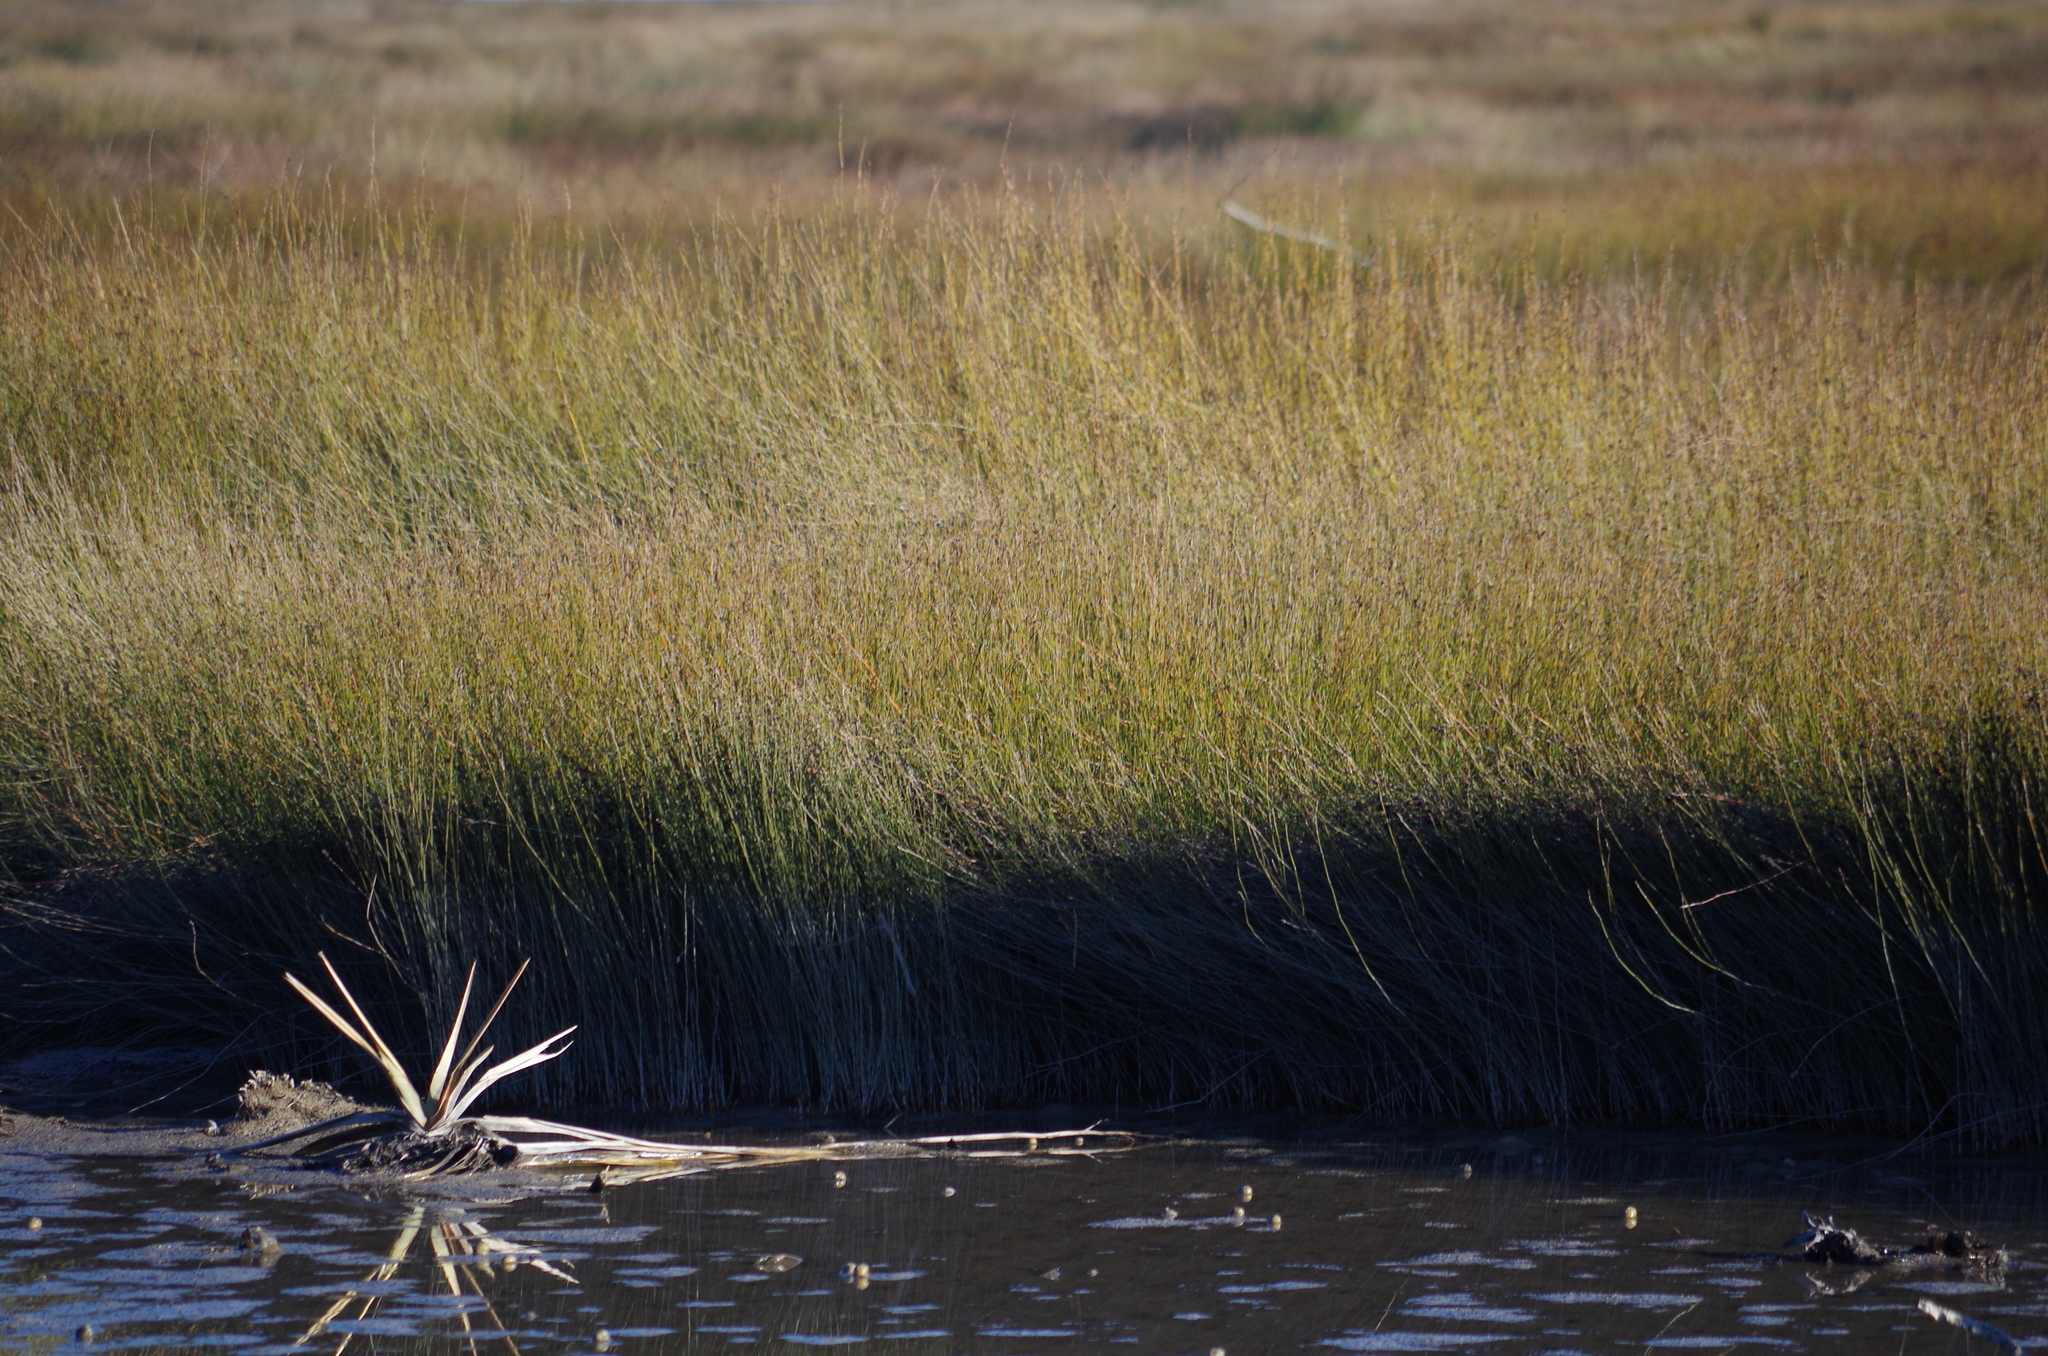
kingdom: Plantae
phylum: Tracheophyta
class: Liliopsida
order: Poales
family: Restionaceae
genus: Apodasmia
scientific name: Apodasmia similis
